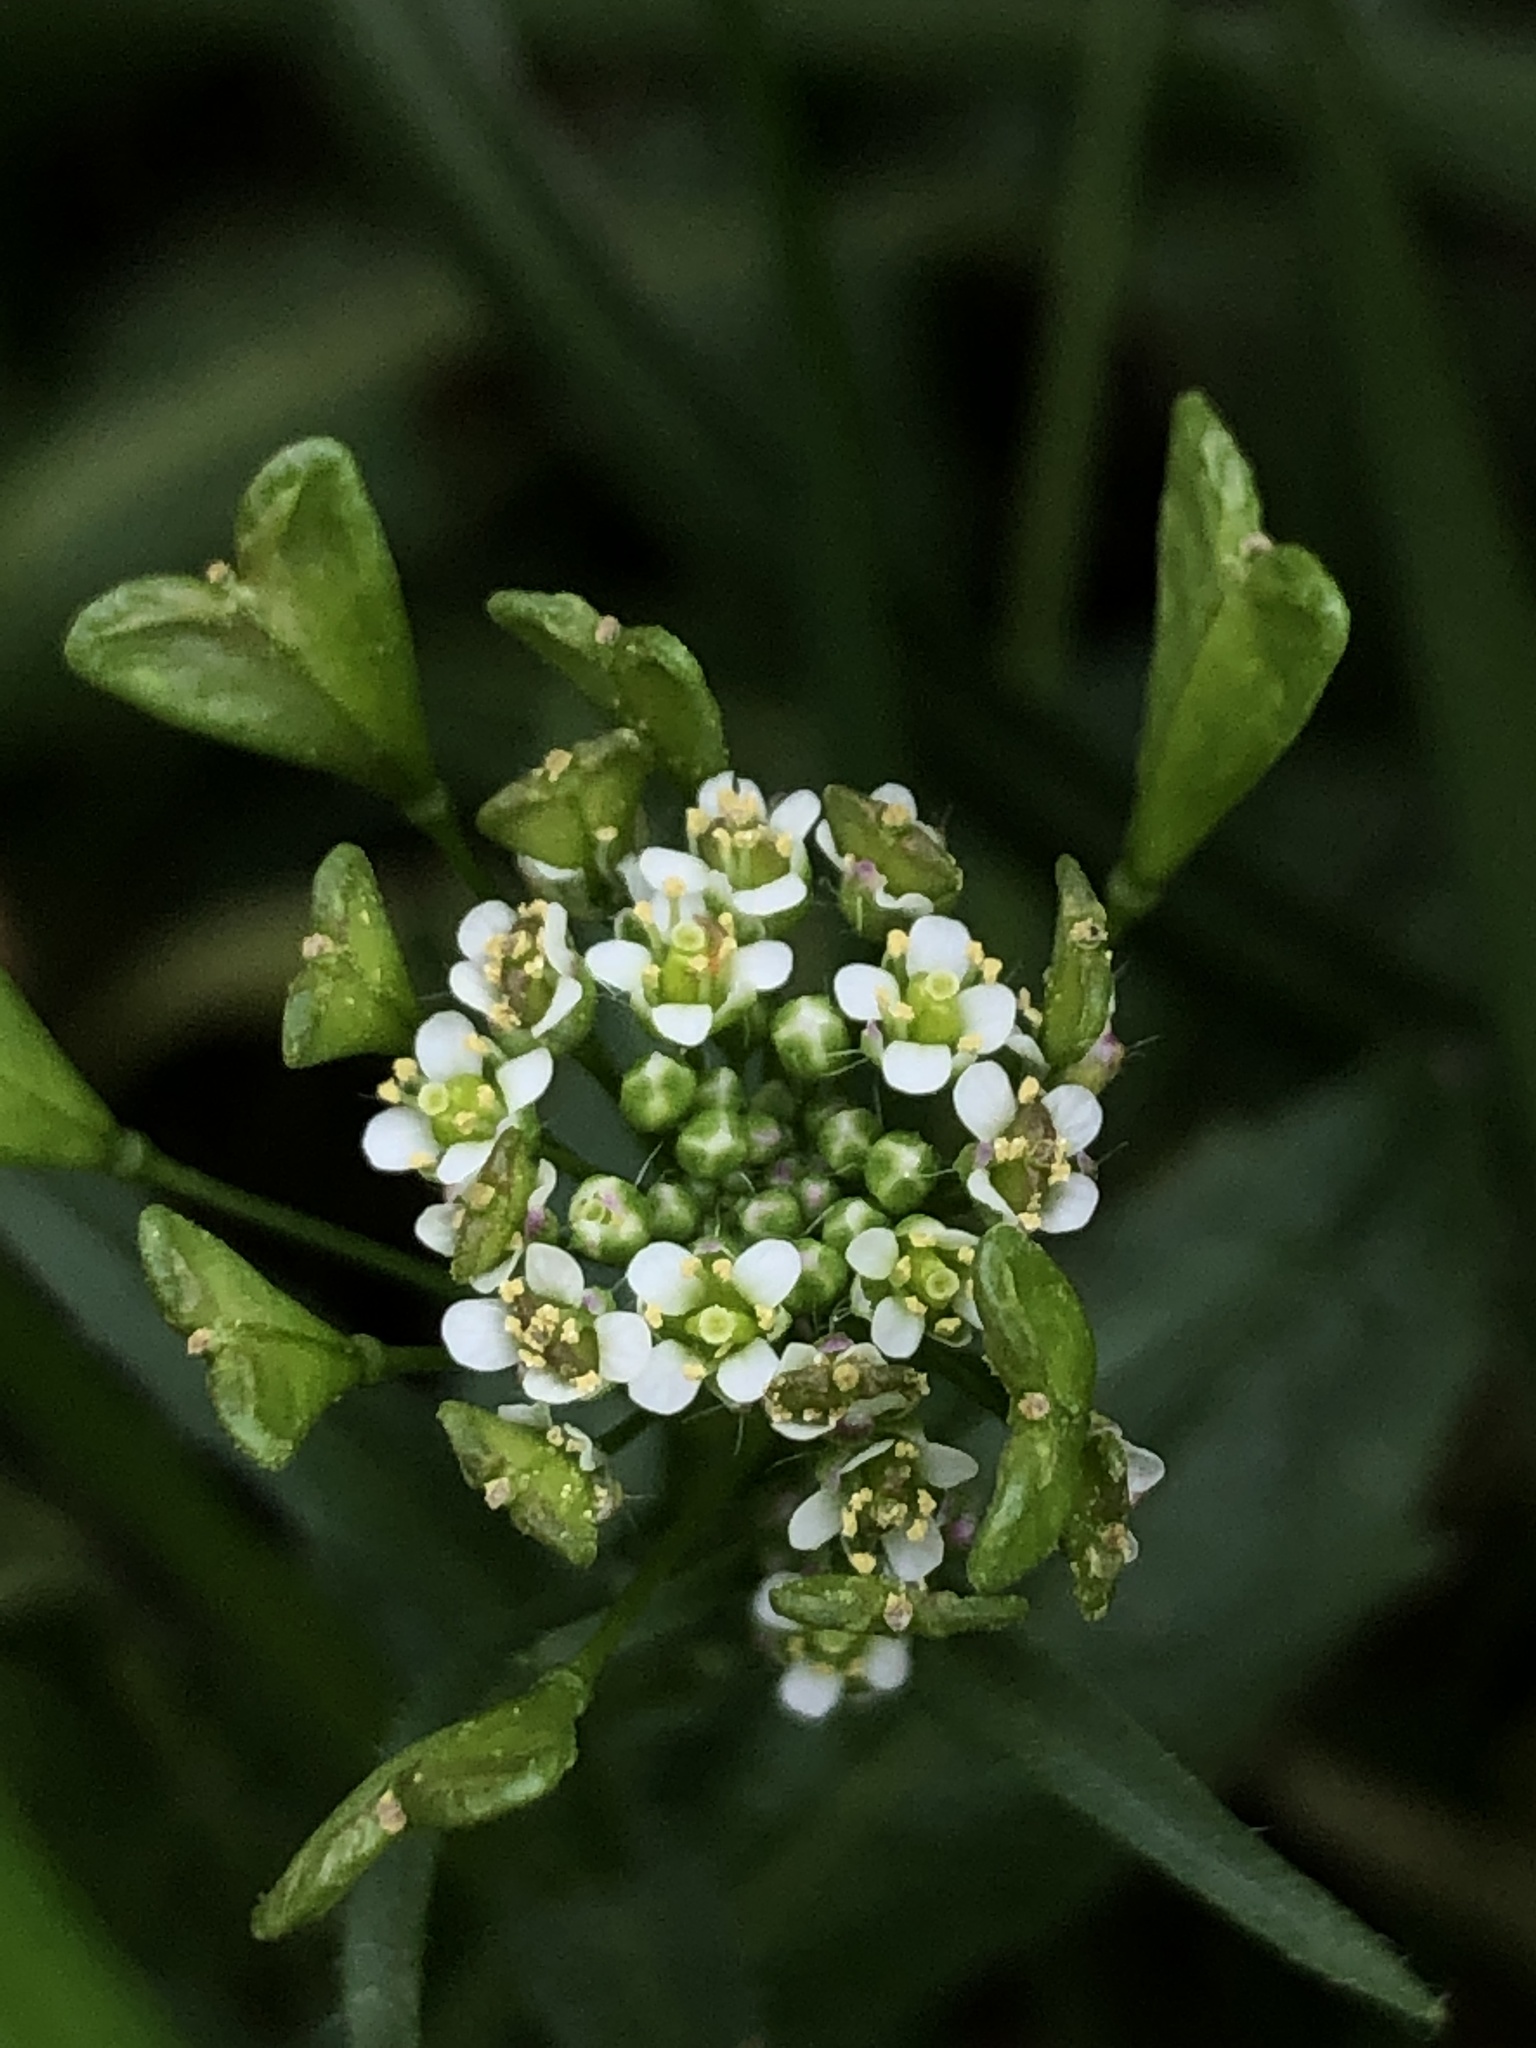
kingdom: Plantae
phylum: Tracheophyta
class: Magnoliopsida
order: Brassicales
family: Brassicaceae
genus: Capsella
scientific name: Capsella bursa-pastoris
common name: Shepherd's purse
